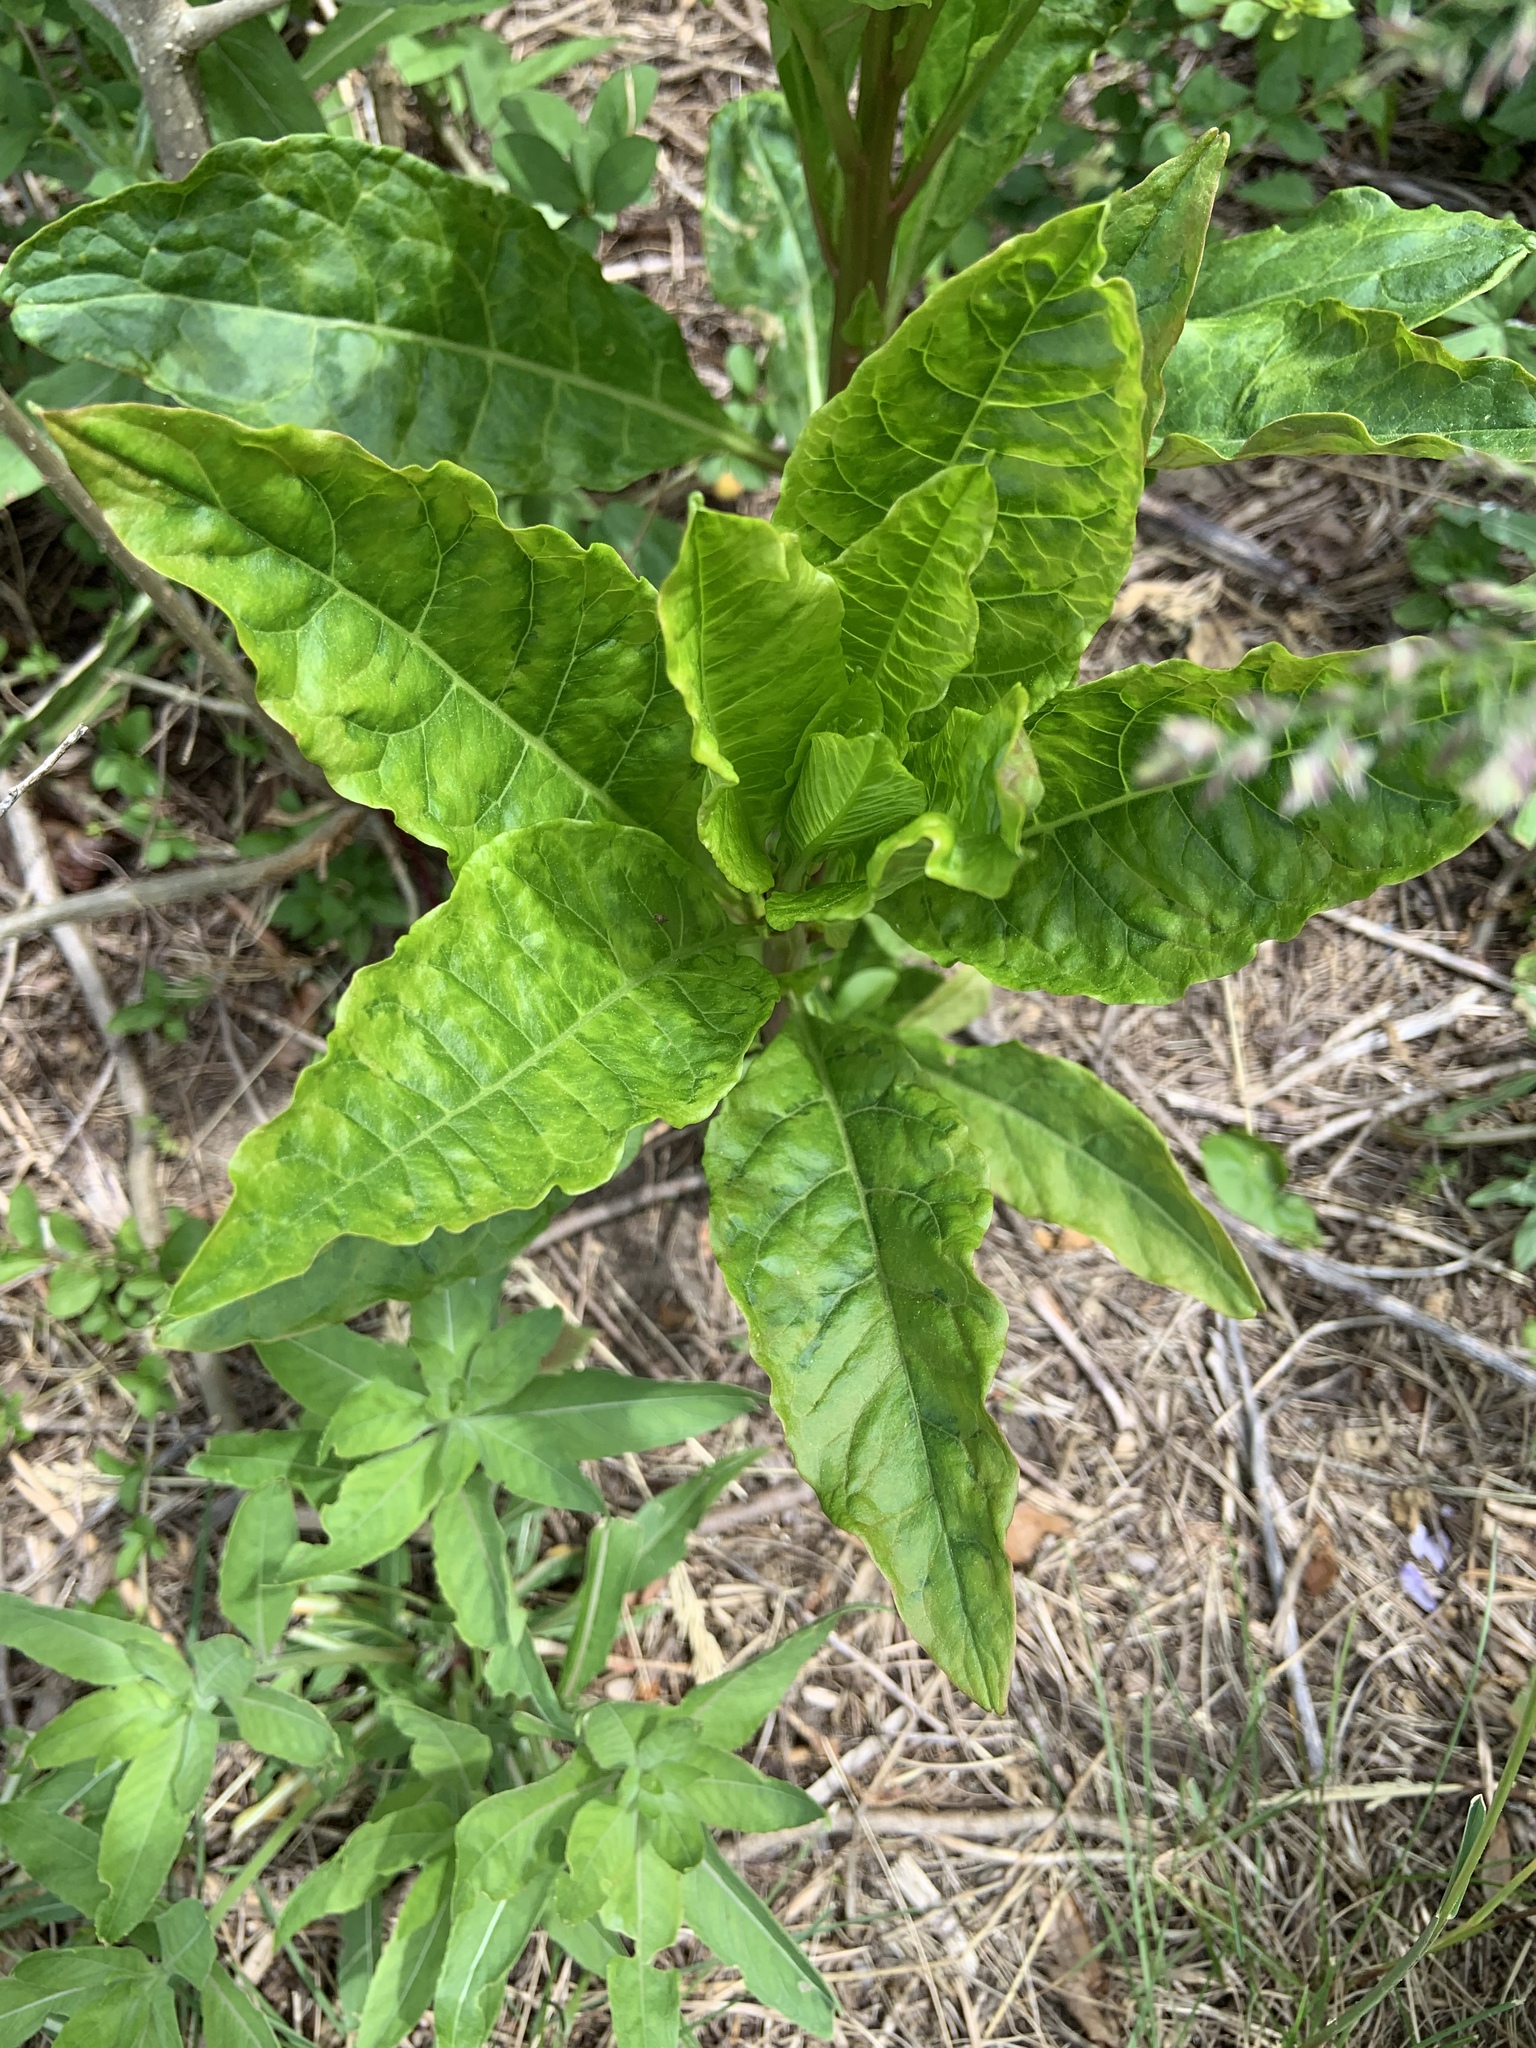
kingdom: Plantae
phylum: Tracheophyta
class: Magnoliopsida
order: Caryophyllales
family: Phytolaccaceae
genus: Phytolacca
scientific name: Phytolacca americana
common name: American pokeweed
